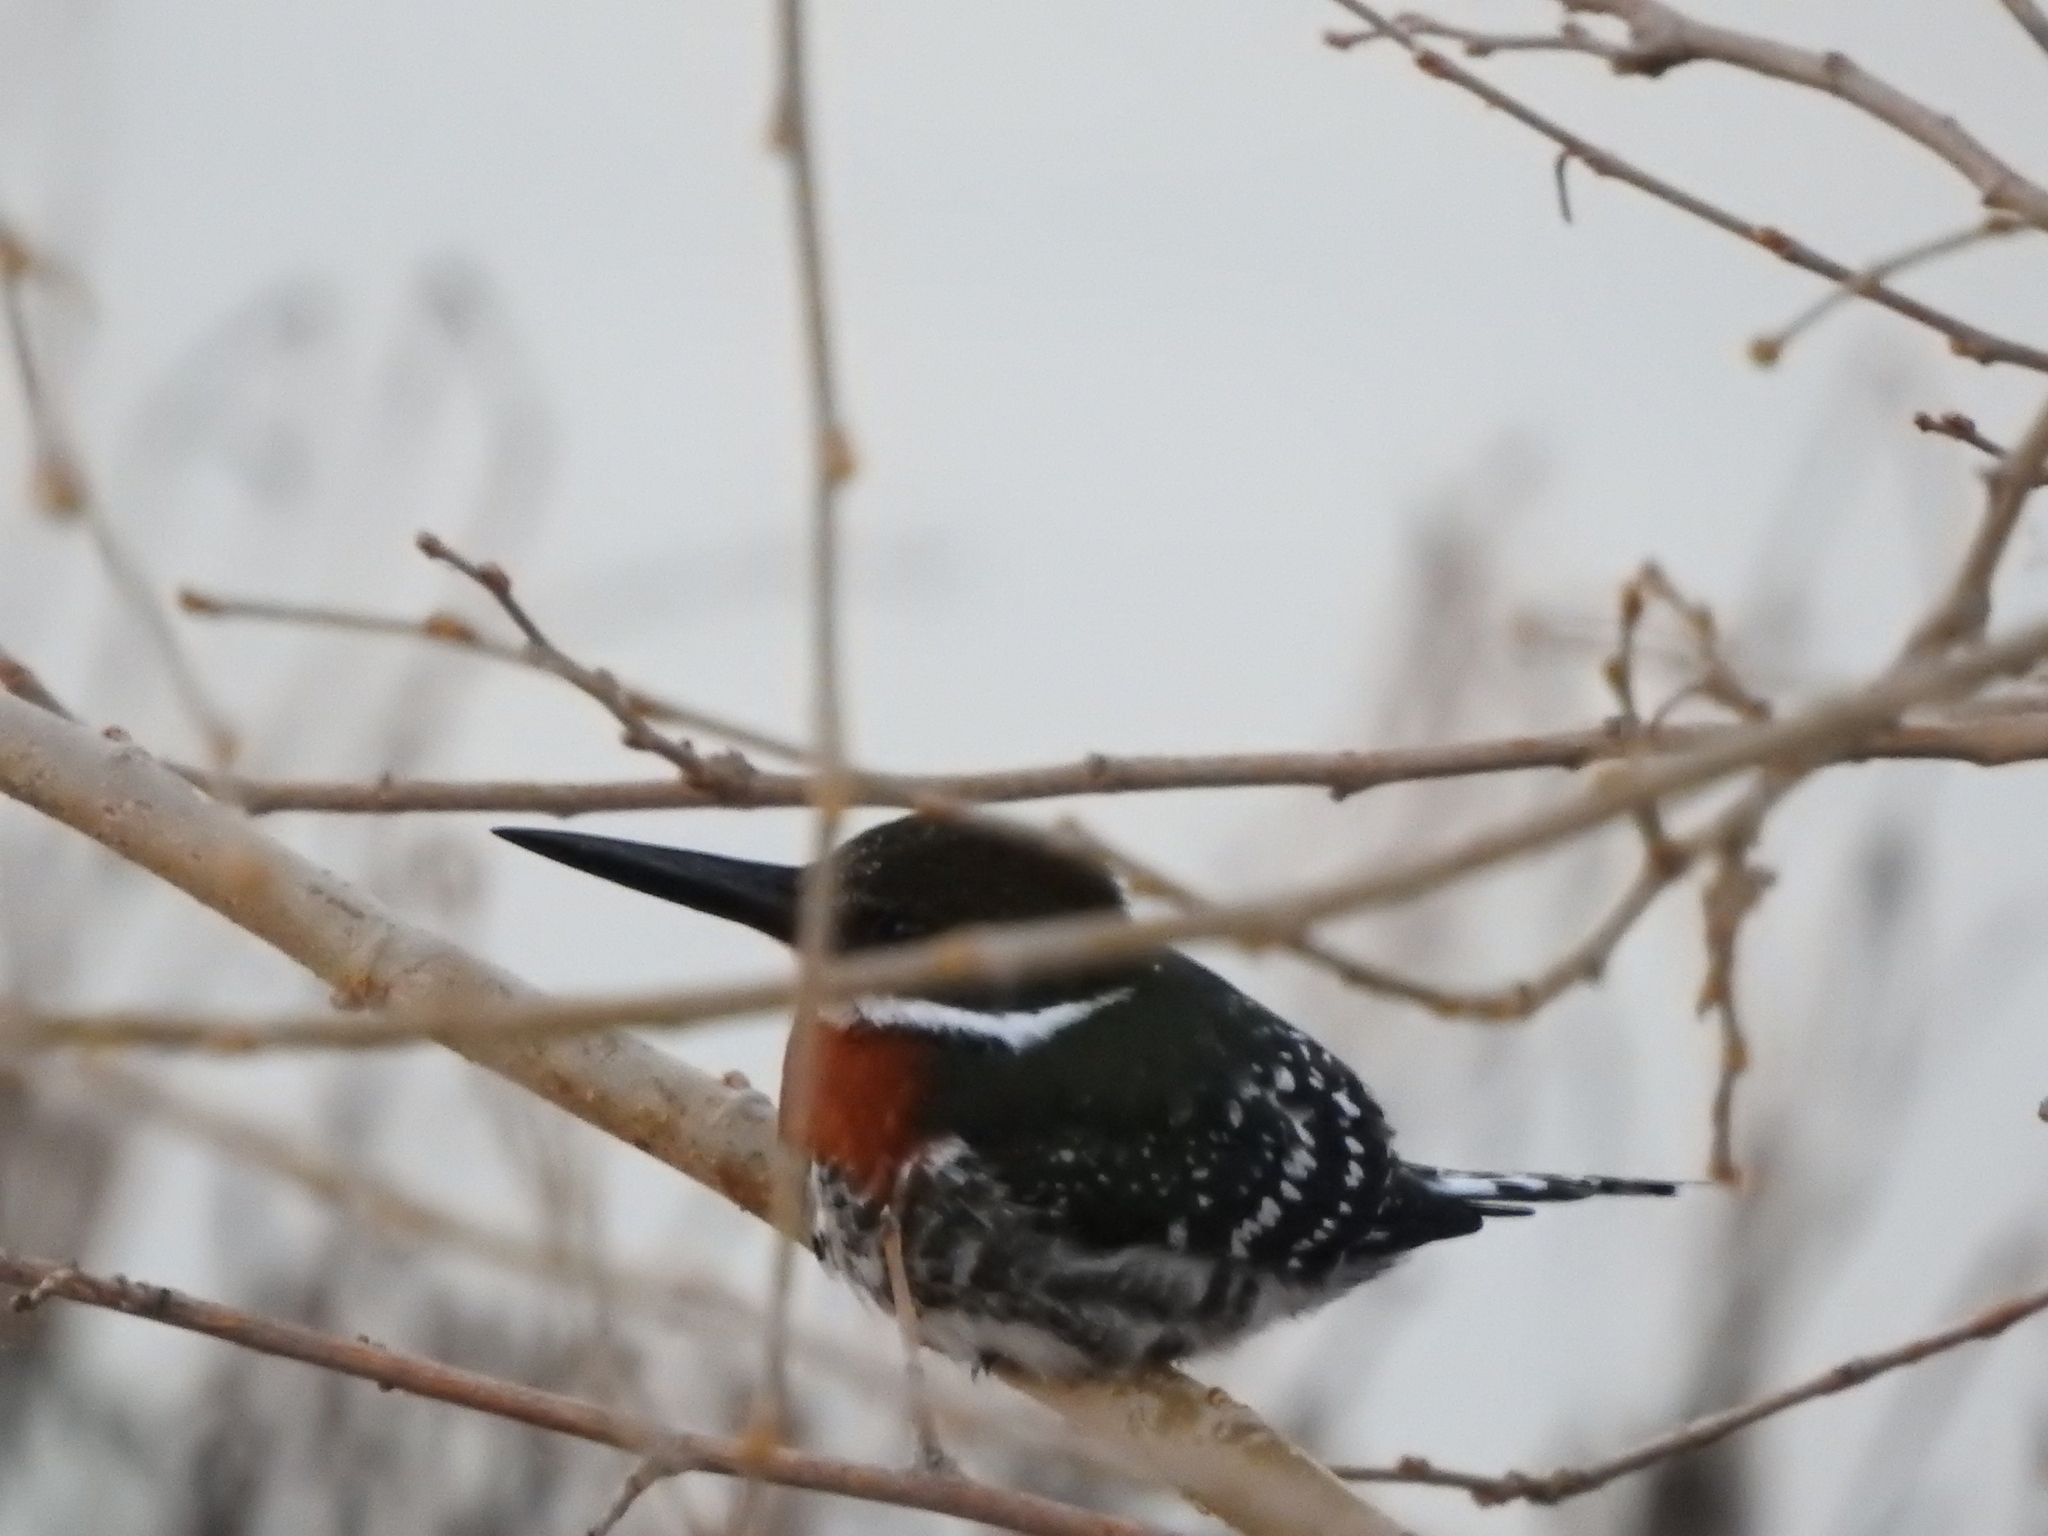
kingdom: Animalia
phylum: Chordata
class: Aves
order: Coraciiformes
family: Alcedinidae
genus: Chloroceryle
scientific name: Chloroceryle americana
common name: Green kingfisher
